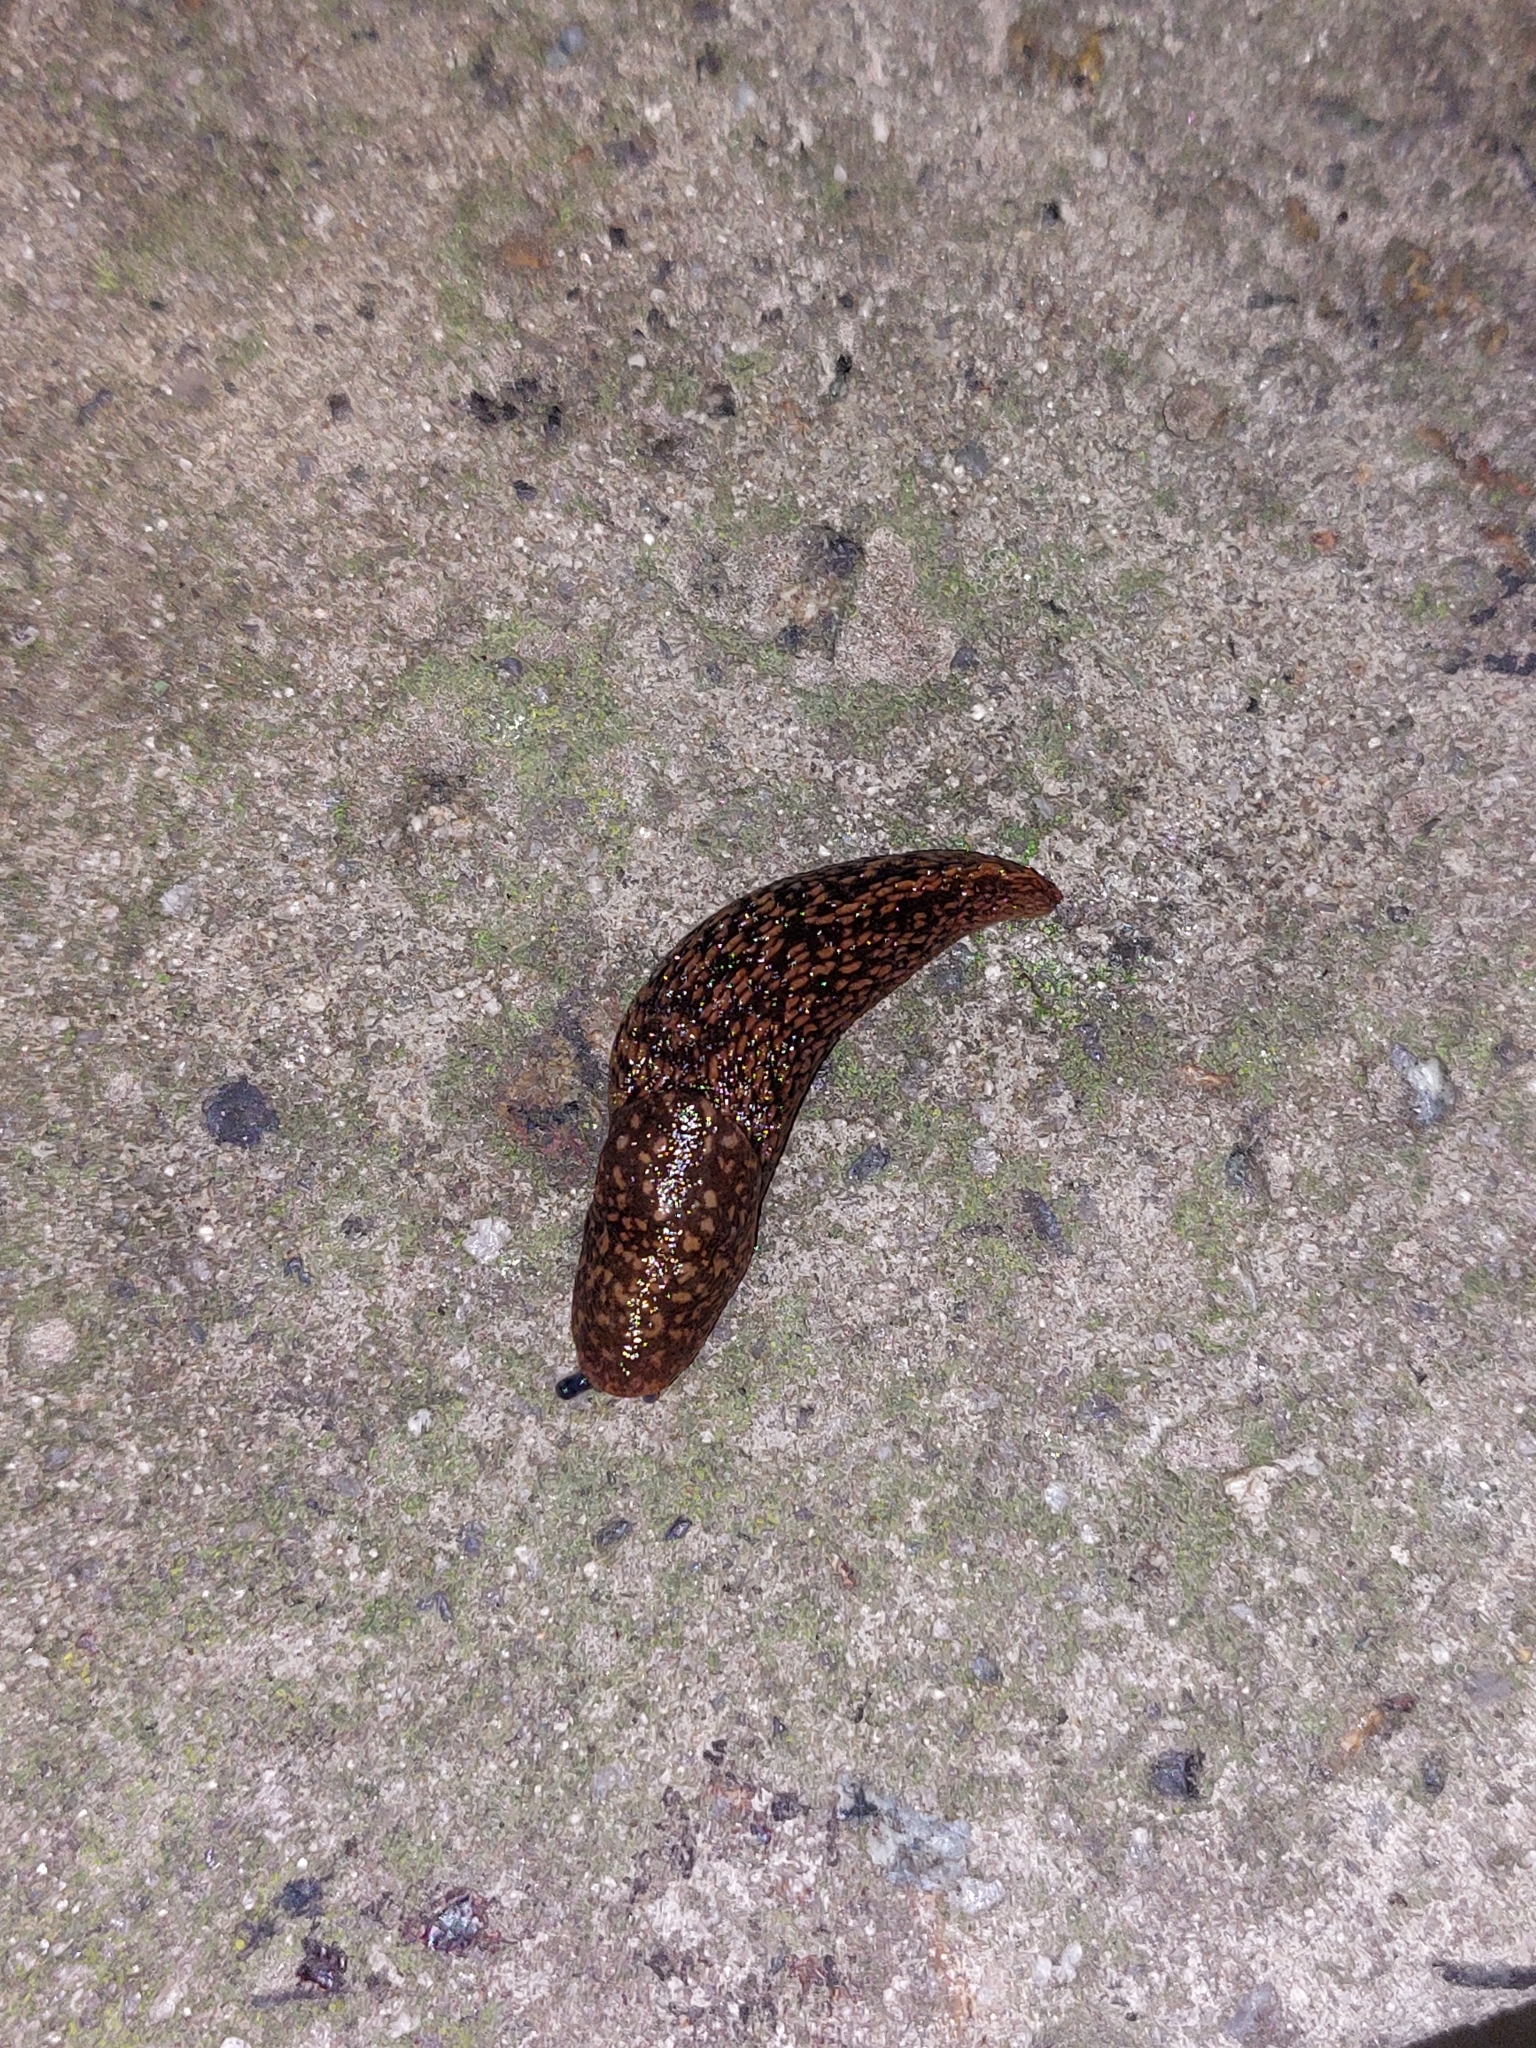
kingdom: Animalia
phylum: Mollusca
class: Gastropoda
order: Stylommatophora
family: Limacidae
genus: Limacus
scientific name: Limacus
